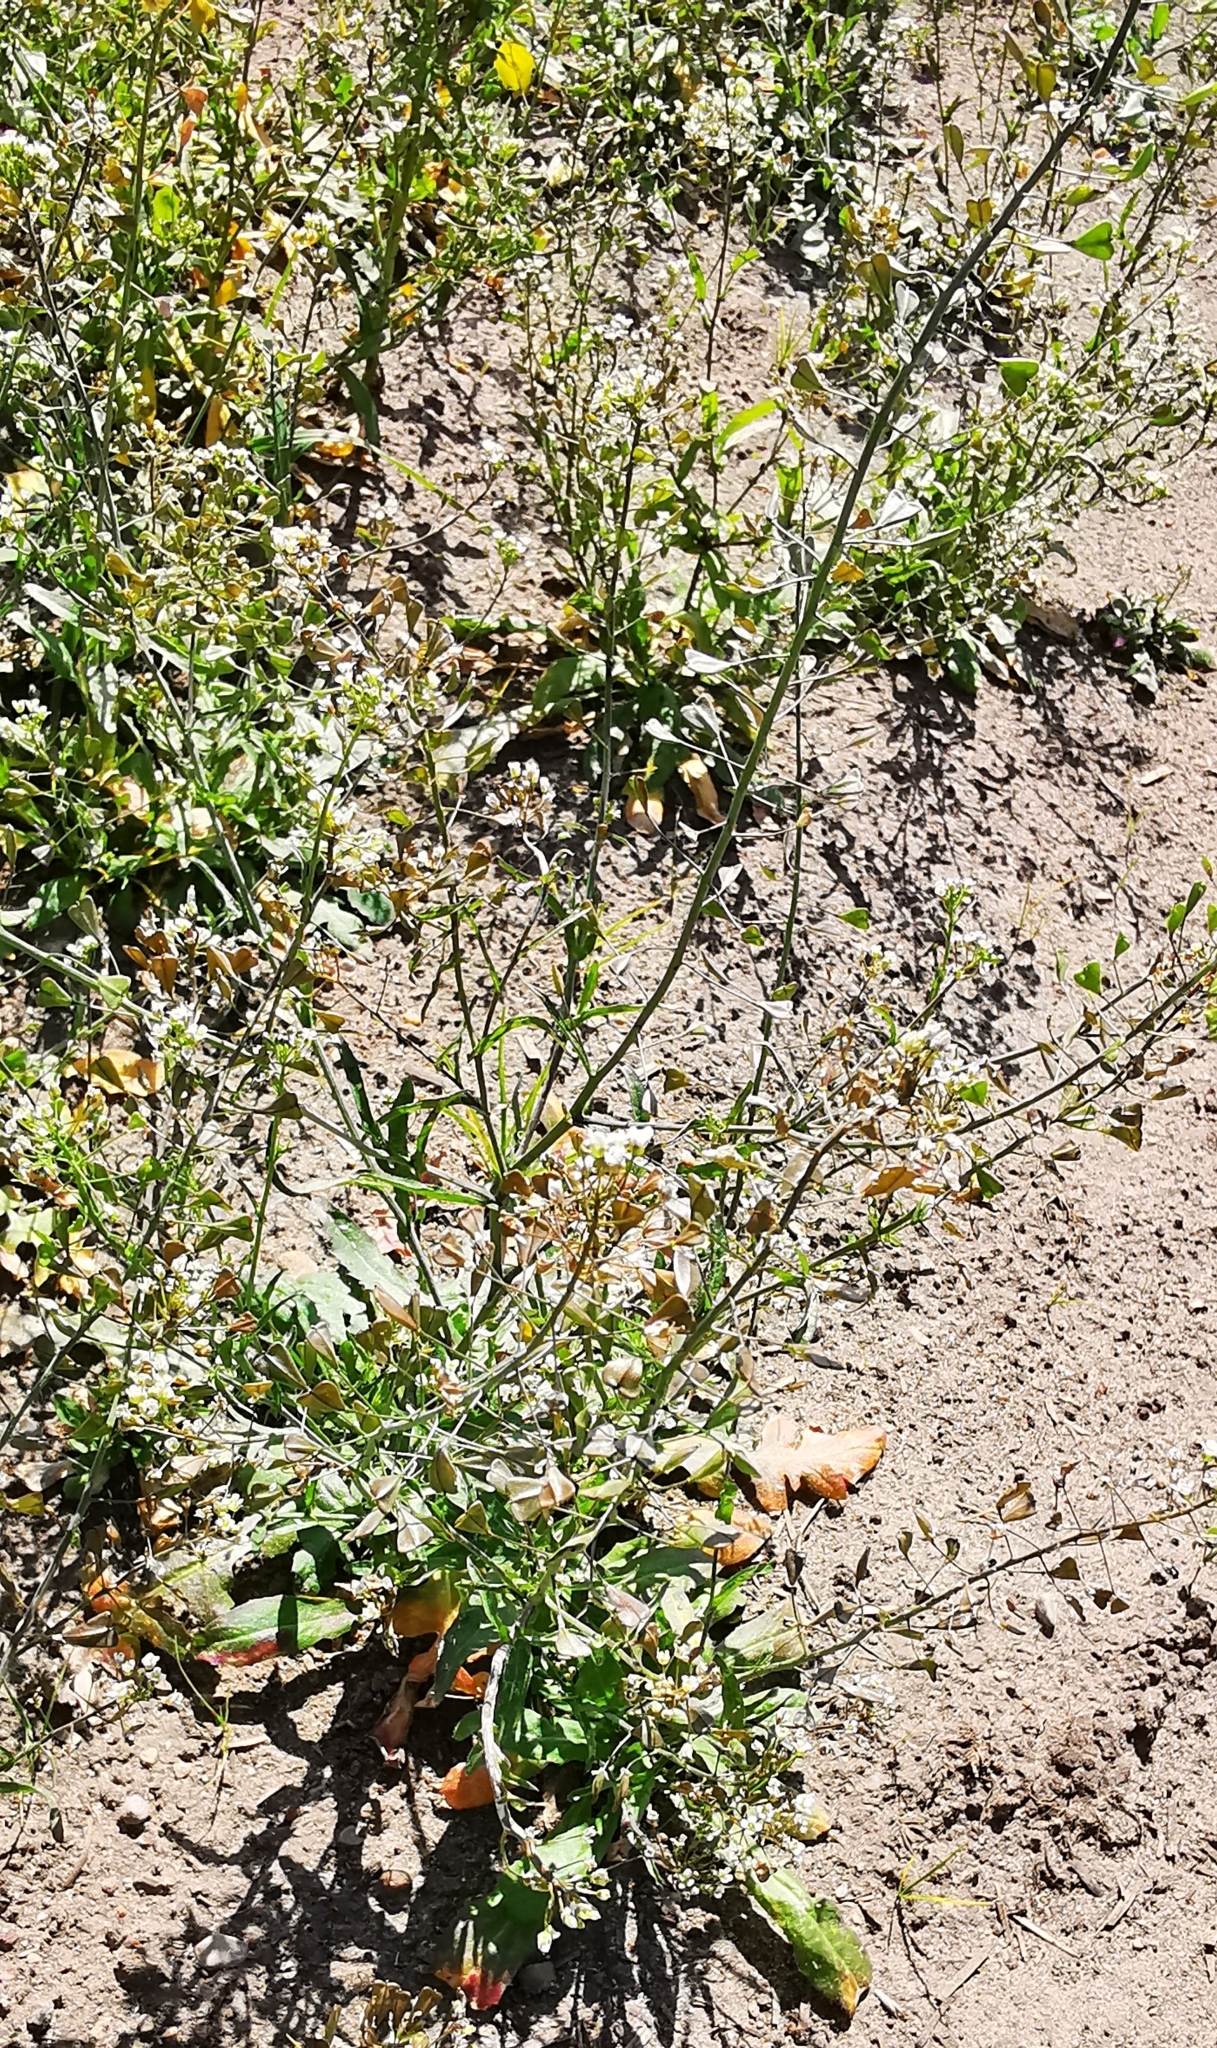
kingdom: Plantae
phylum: Tracheophyta
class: Magnoliopsida
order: Brassicales
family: Brassicaceae
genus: Capsella
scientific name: Capsella bursa-pastoris
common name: Shepherd's purse
